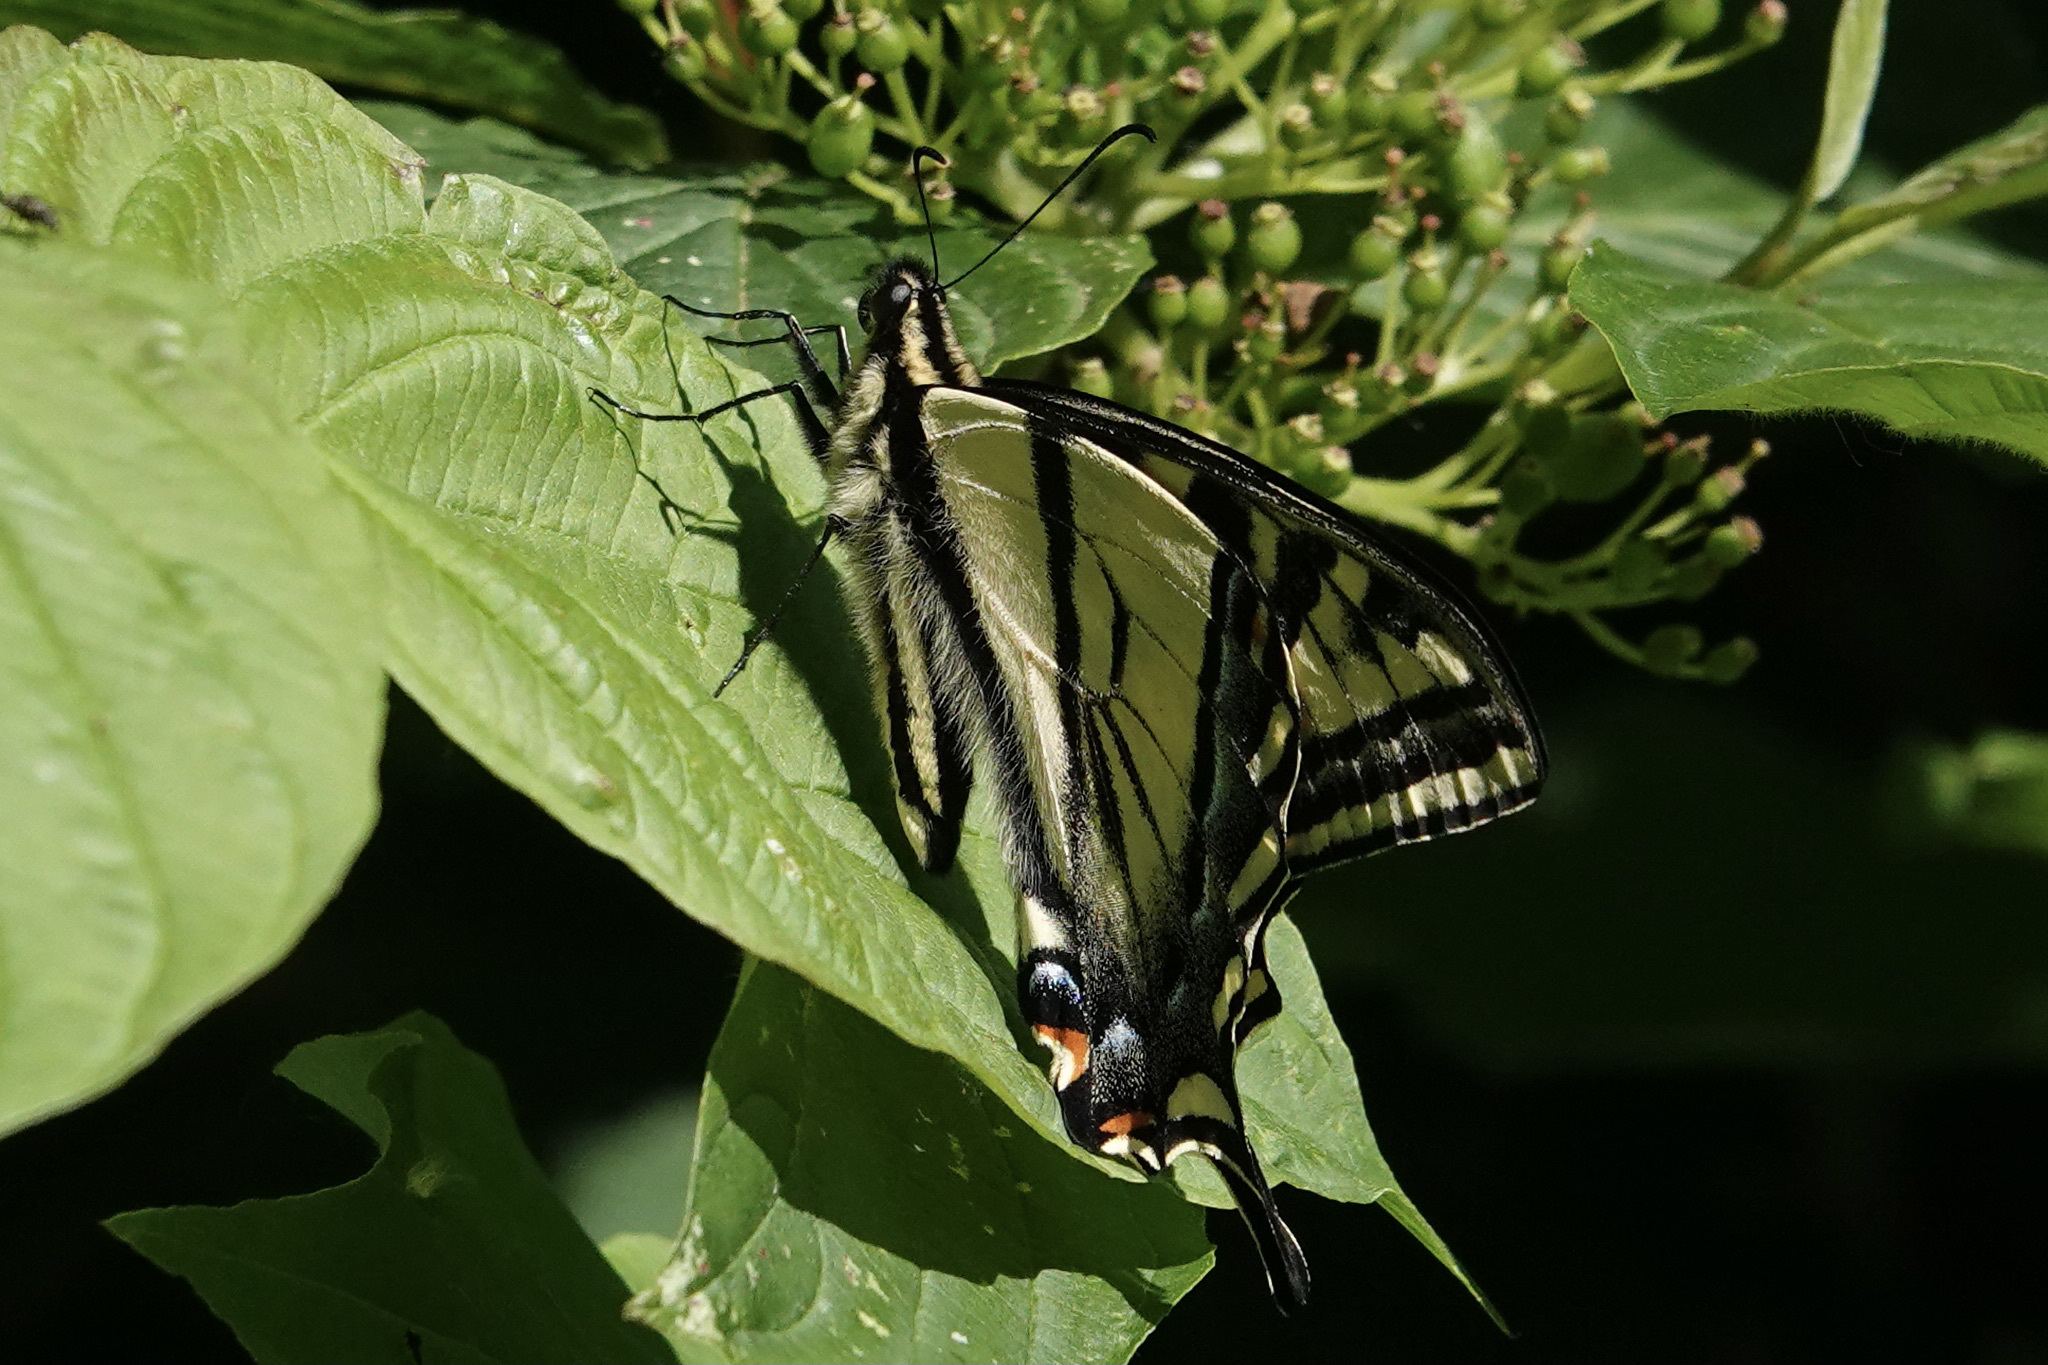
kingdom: Animalia
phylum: Arthropoda
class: Insecta
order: Lepidoptera
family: Papilionidae
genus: Papilio
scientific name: Papilio rutulus
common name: Western tiger swallowtail
